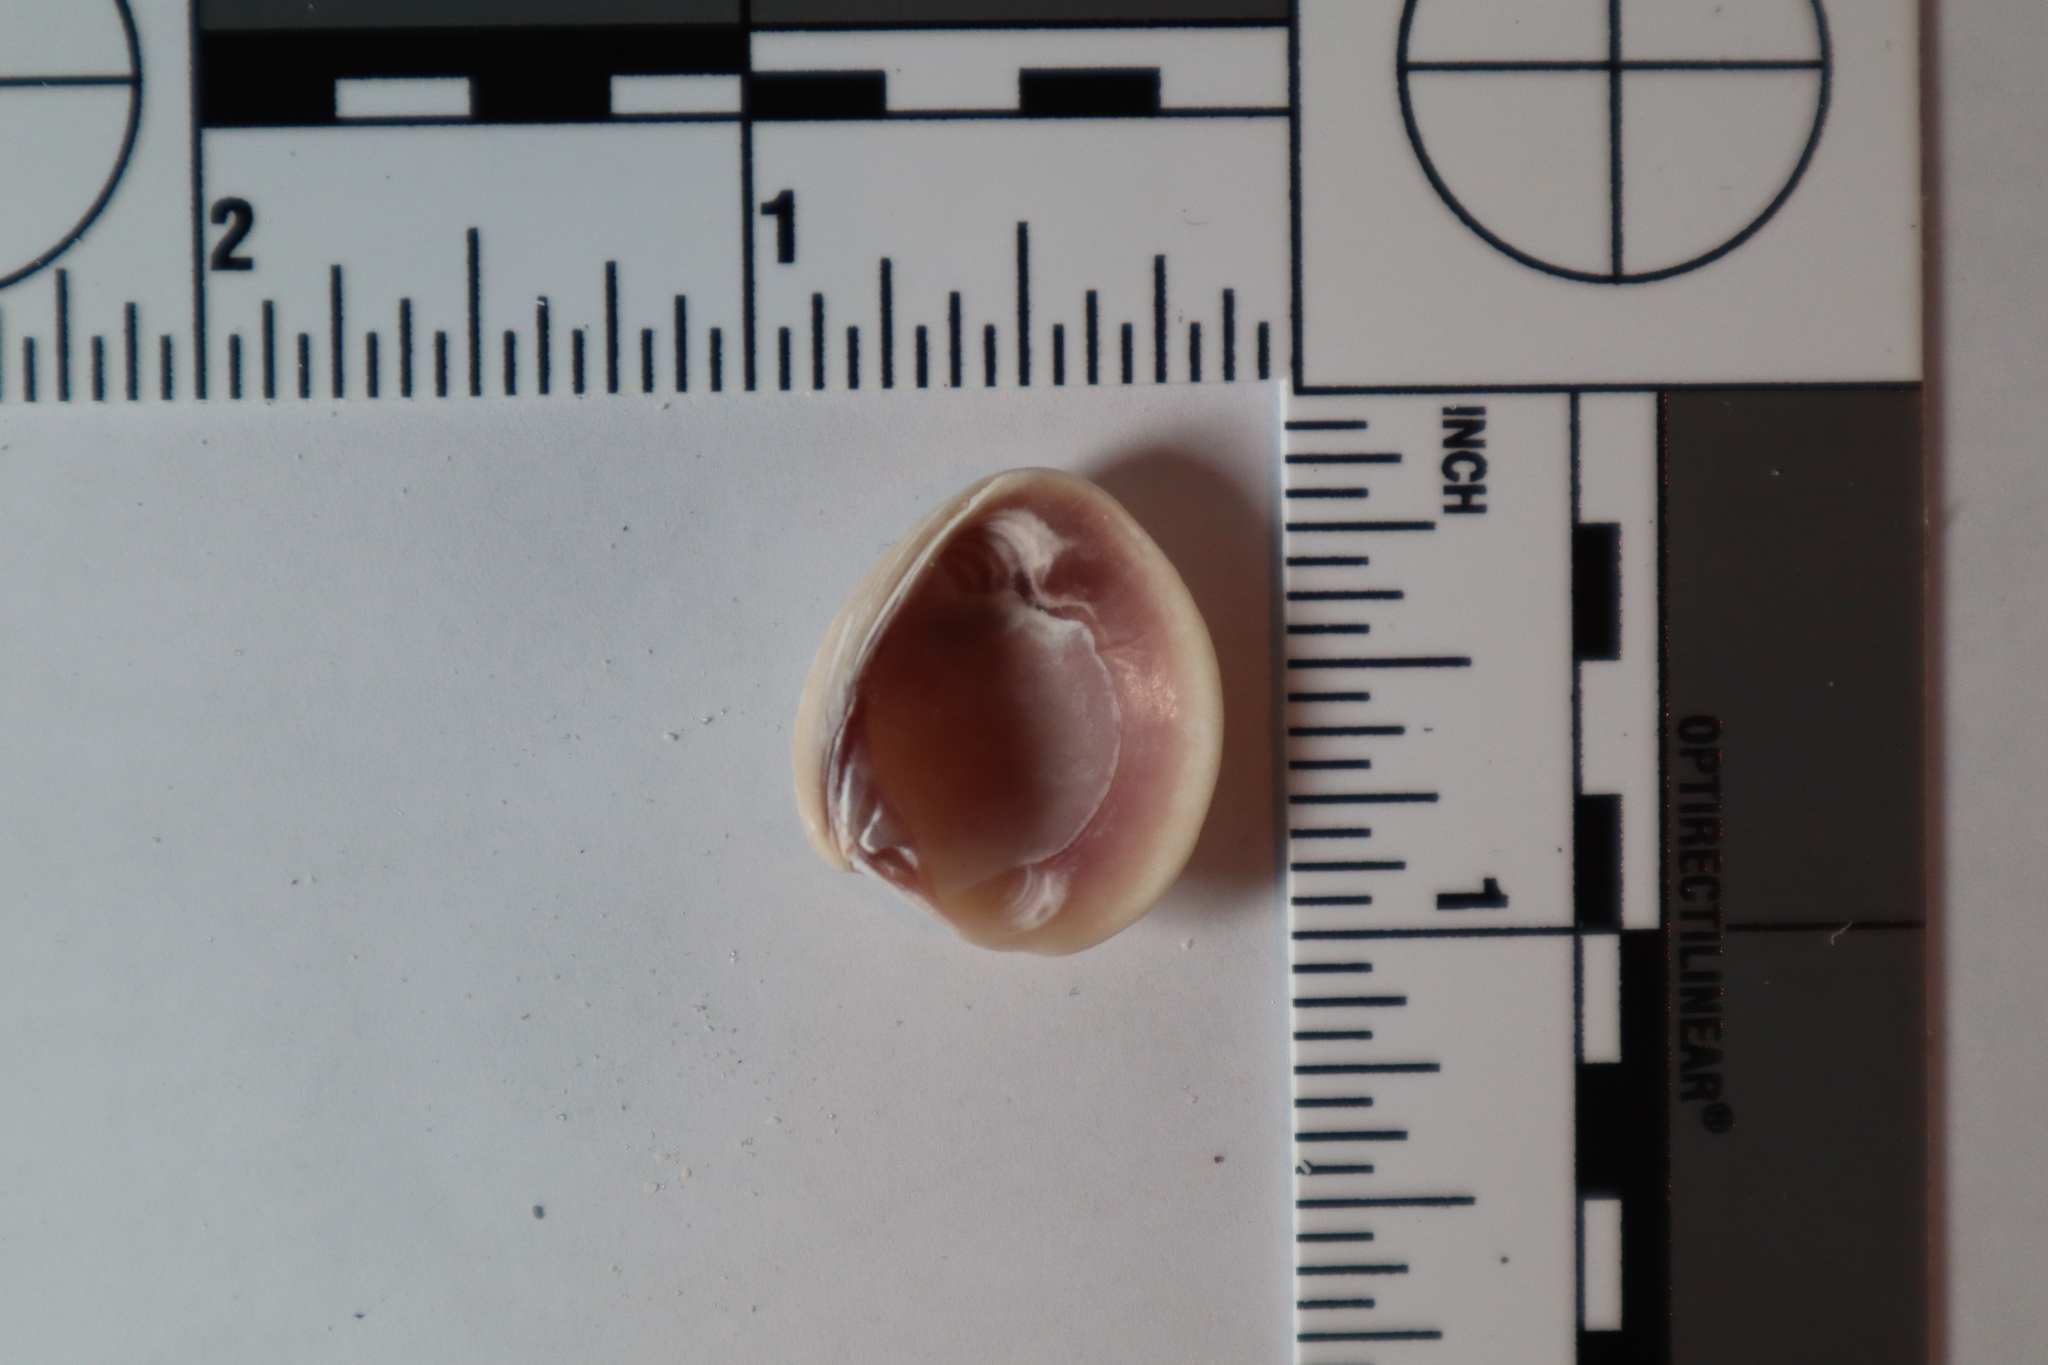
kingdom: Animalia
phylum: Mollusca
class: Bivalvia
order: Venerida
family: Veneridae
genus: Chione
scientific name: Chione elevata
